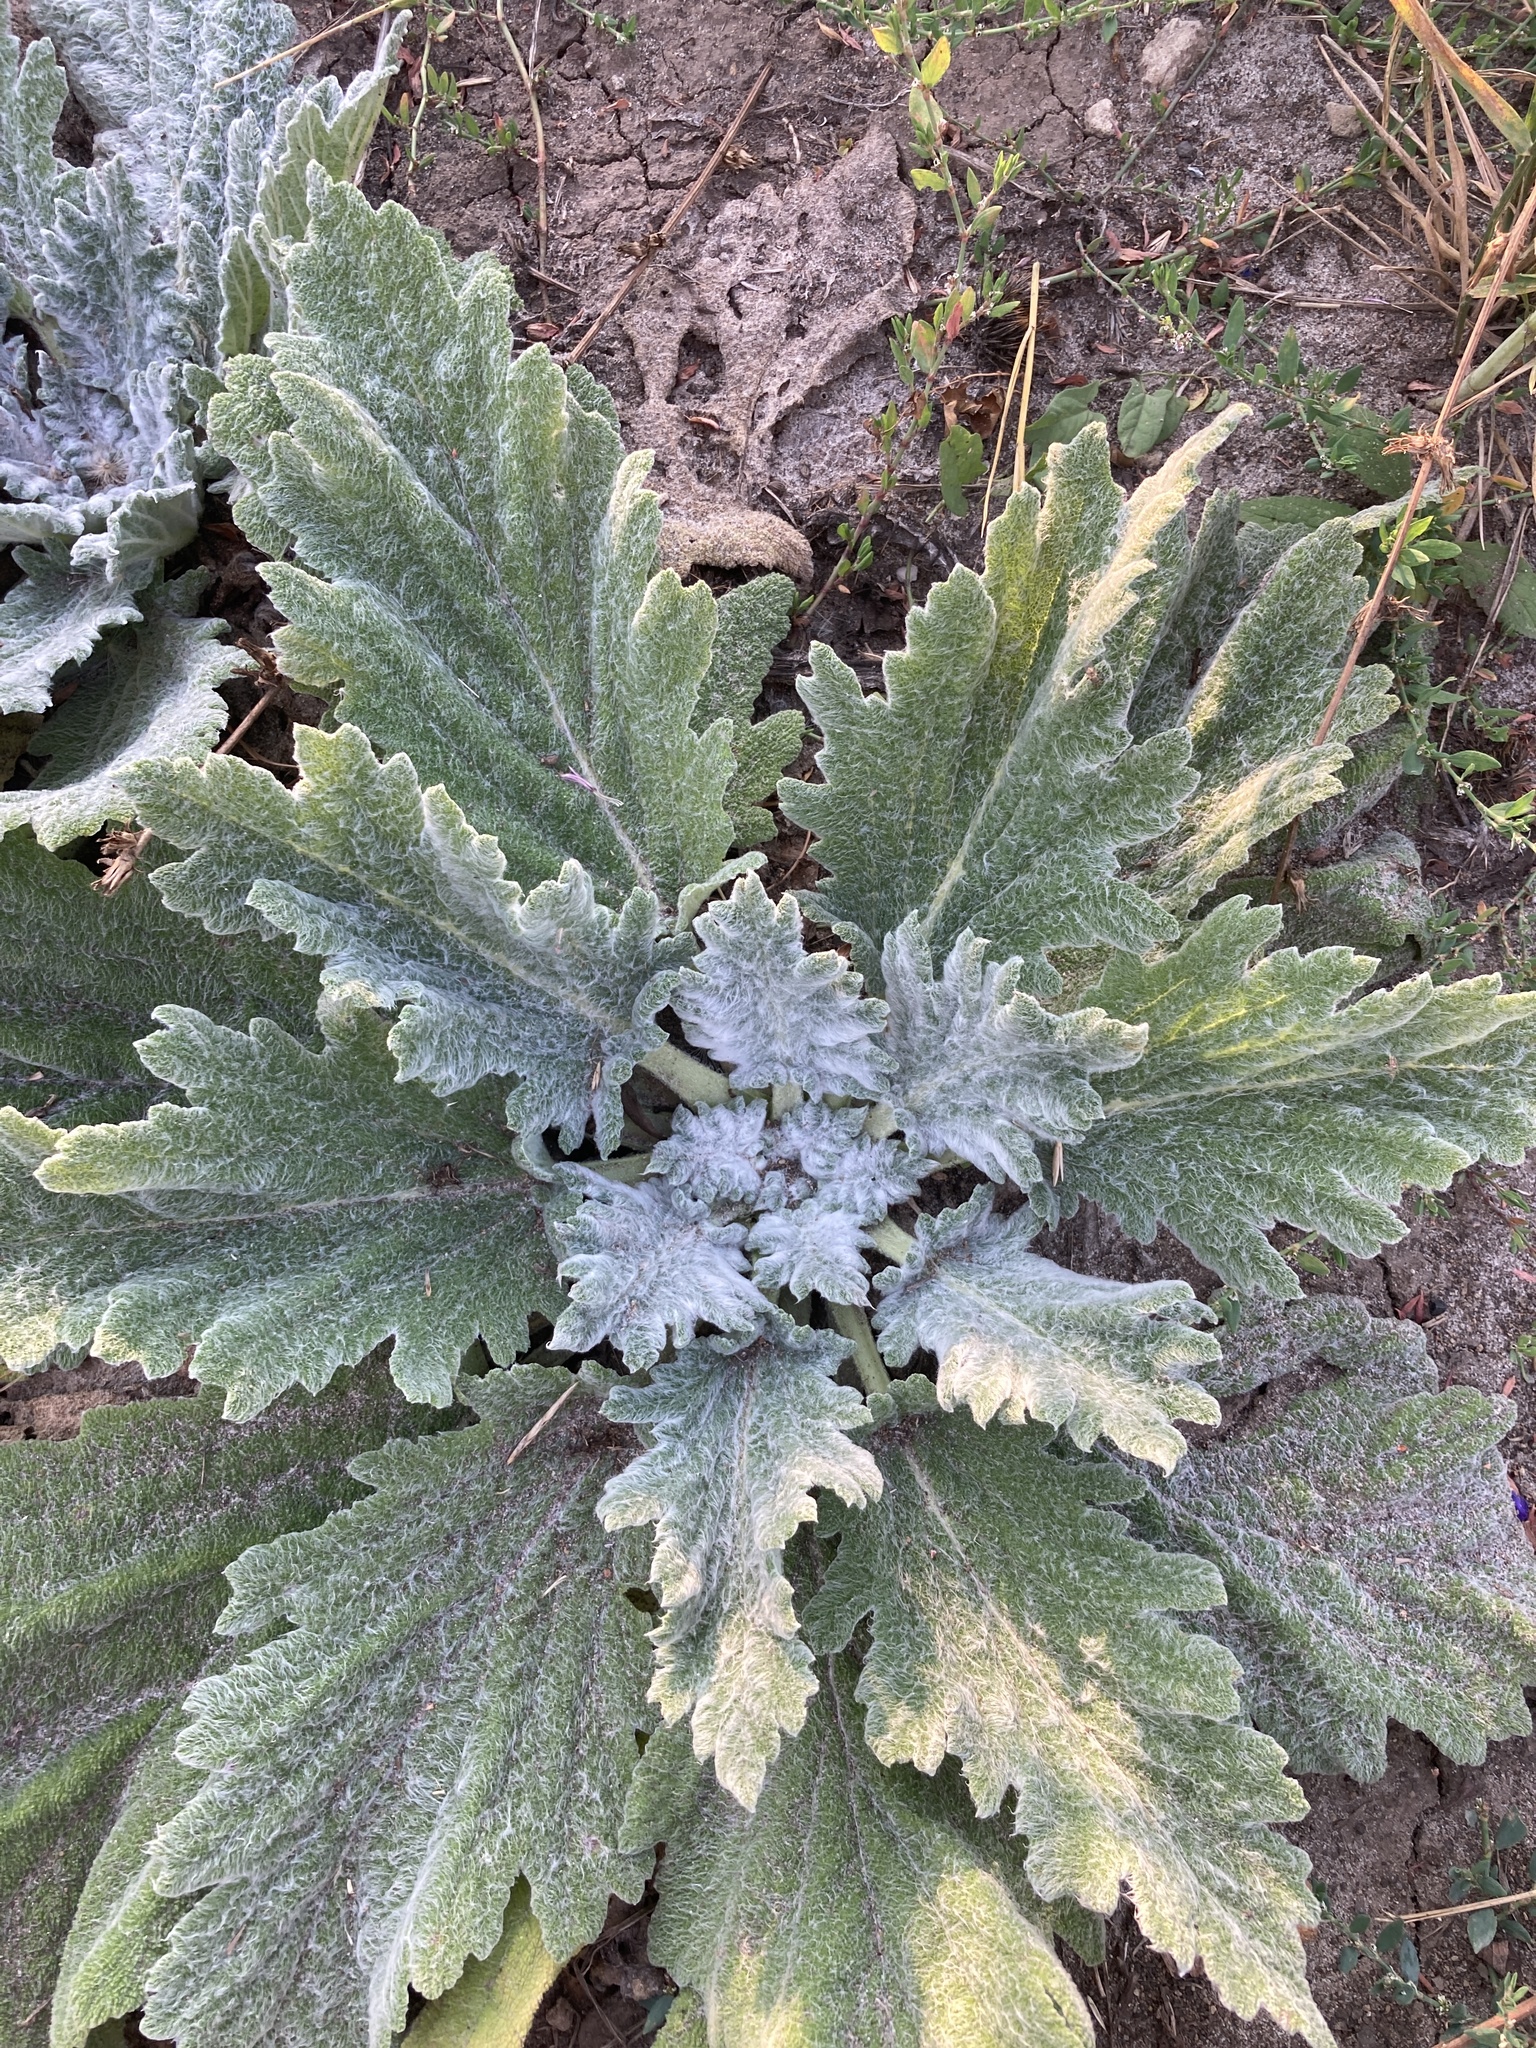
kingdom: Plantae
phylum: Tracheophyta
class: Magnoliopsida
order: Lamiales
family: Lamiaceae
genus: Salvia
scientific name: Salvia aethiopis
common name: Mediterranean sage
